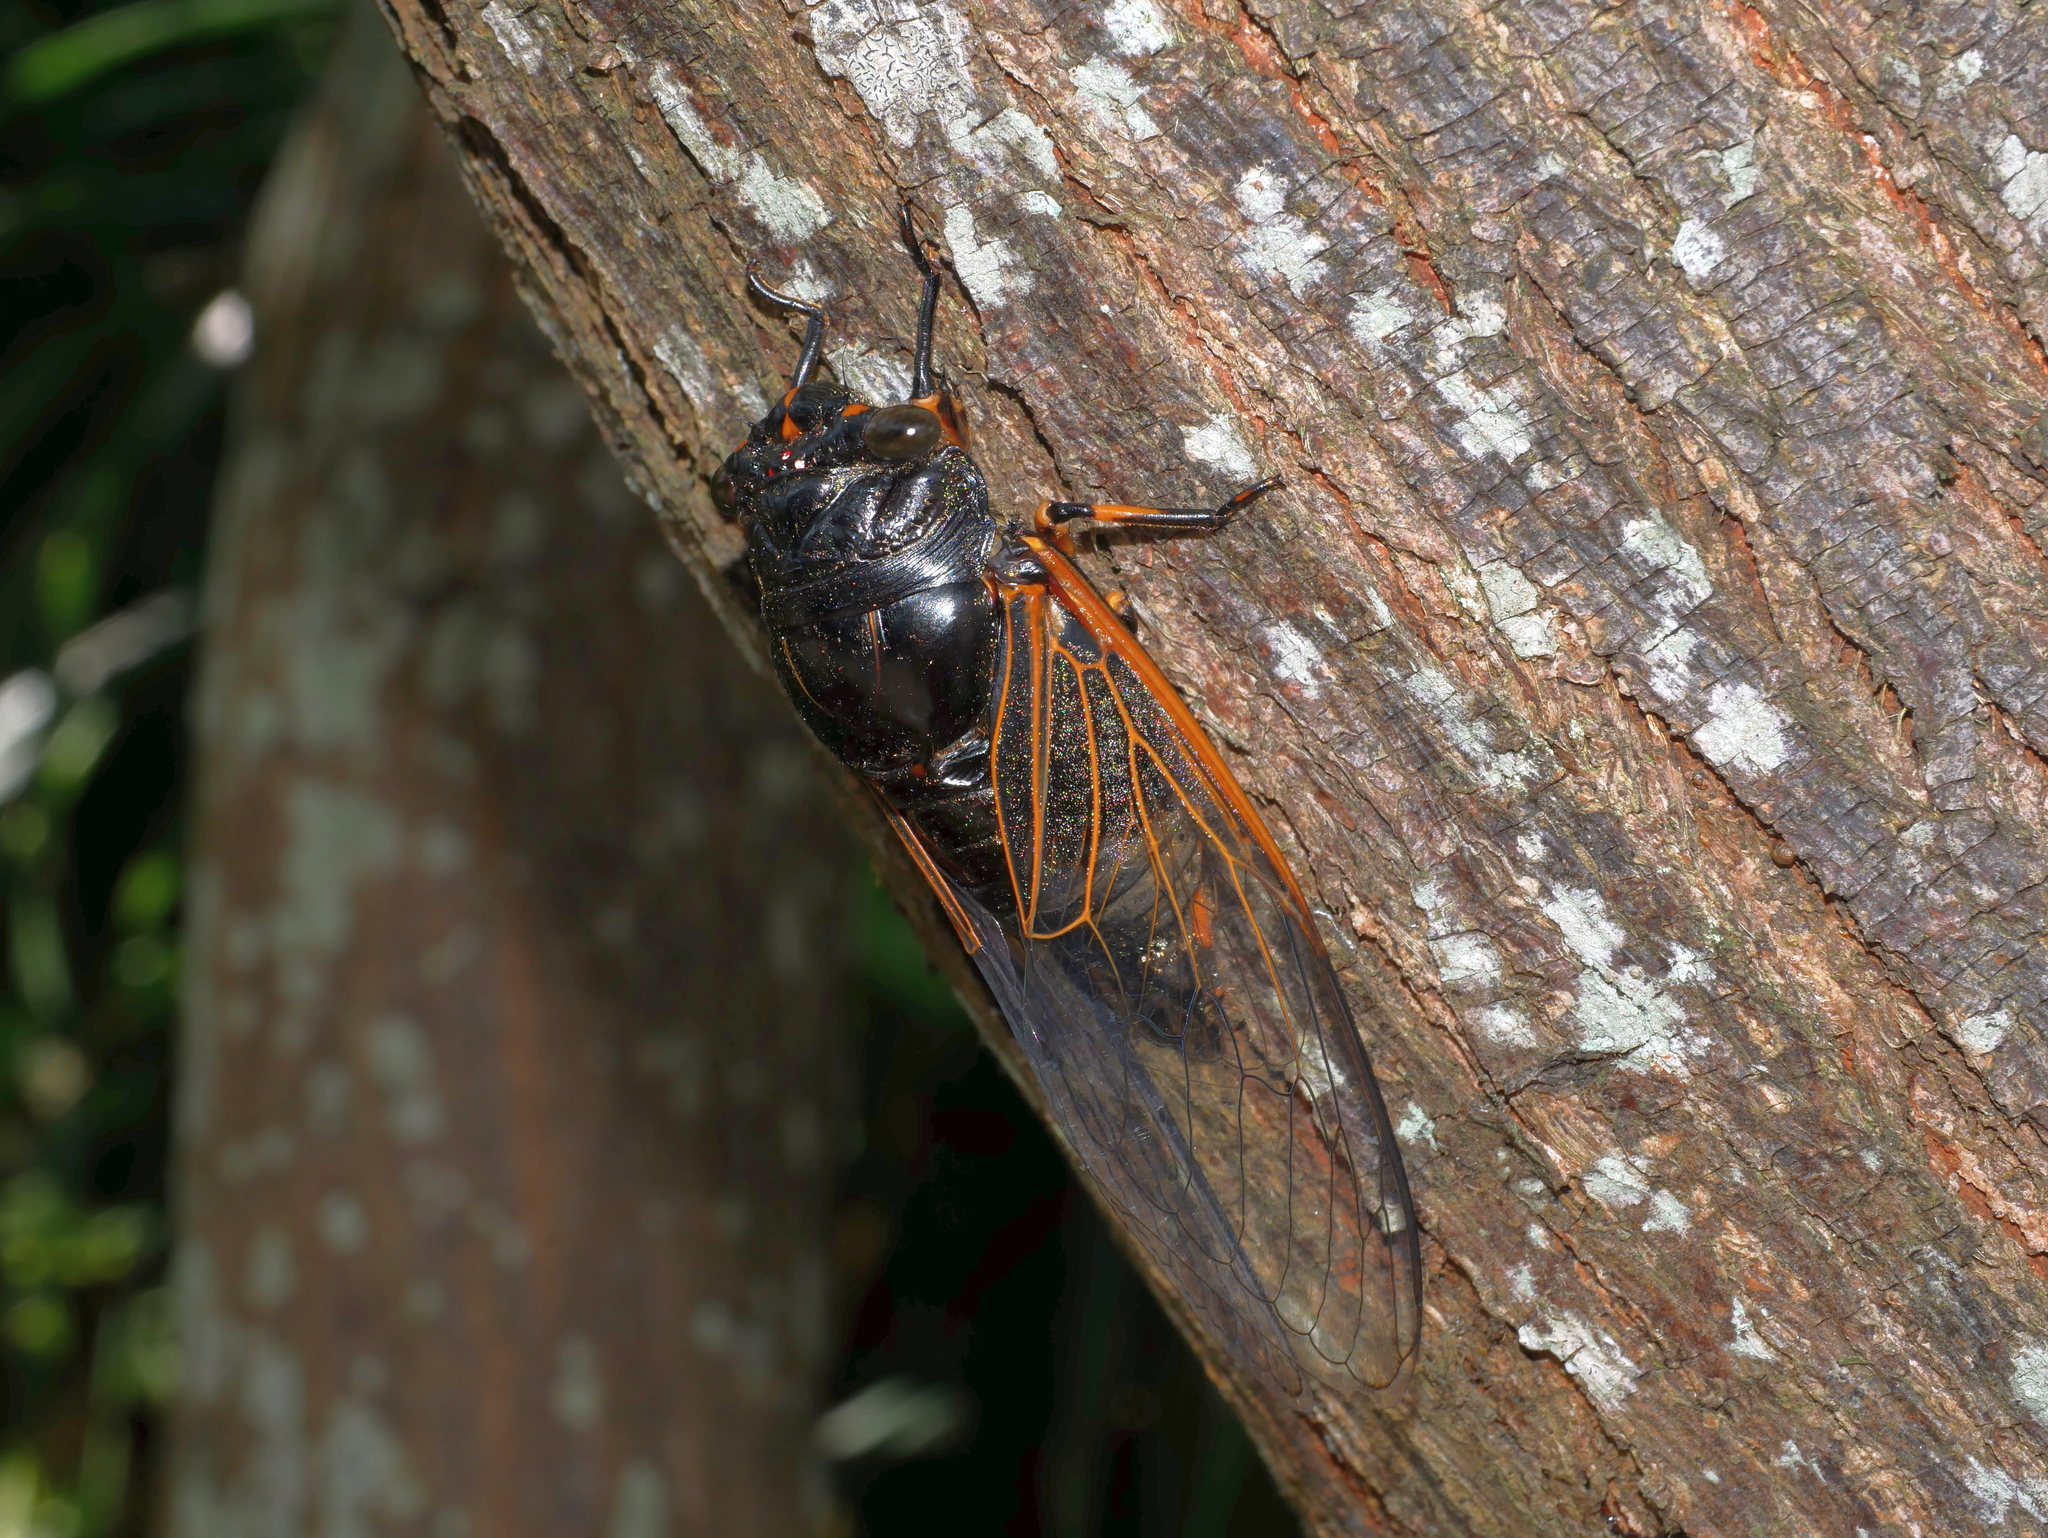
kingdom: Animalia
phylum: Arthropoda
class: Insecta
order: Hemiptera
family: Cicadidae
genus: Cryptotympana
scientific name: Cryptotympana atrata
